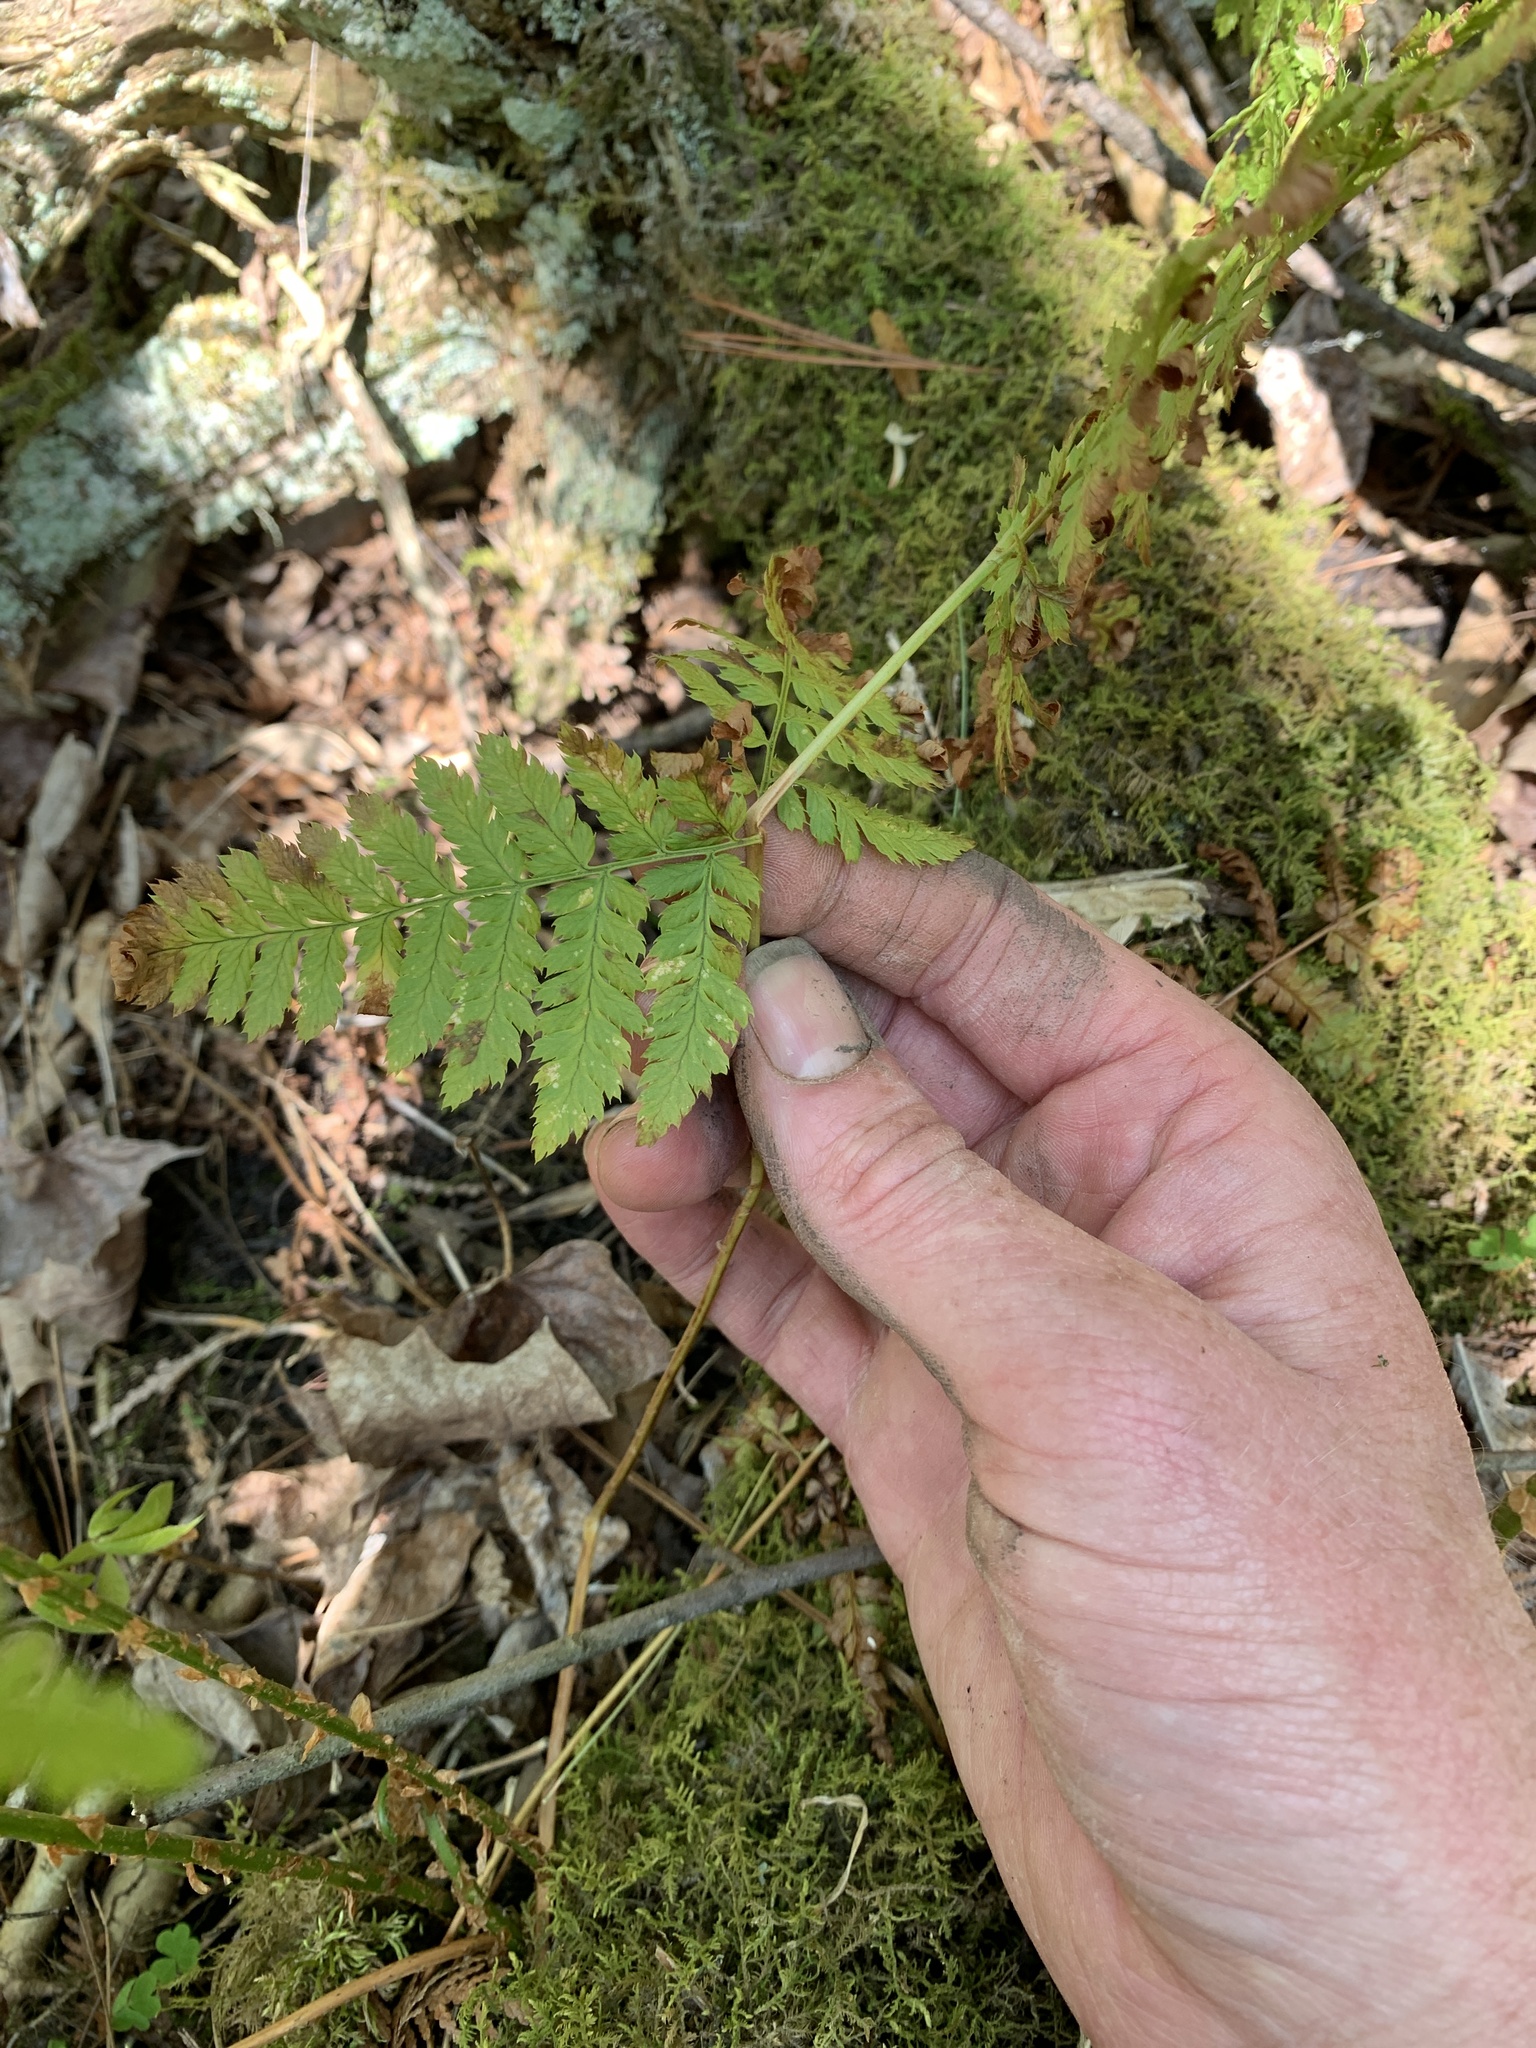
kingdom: Plantae
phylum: Tracheophyta
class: Polypodiopsida
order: Polypodiales
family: Dryopteridaceae
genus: Dryopteris
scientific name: Dryopteris intermedia
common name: Evergreen wood fern
